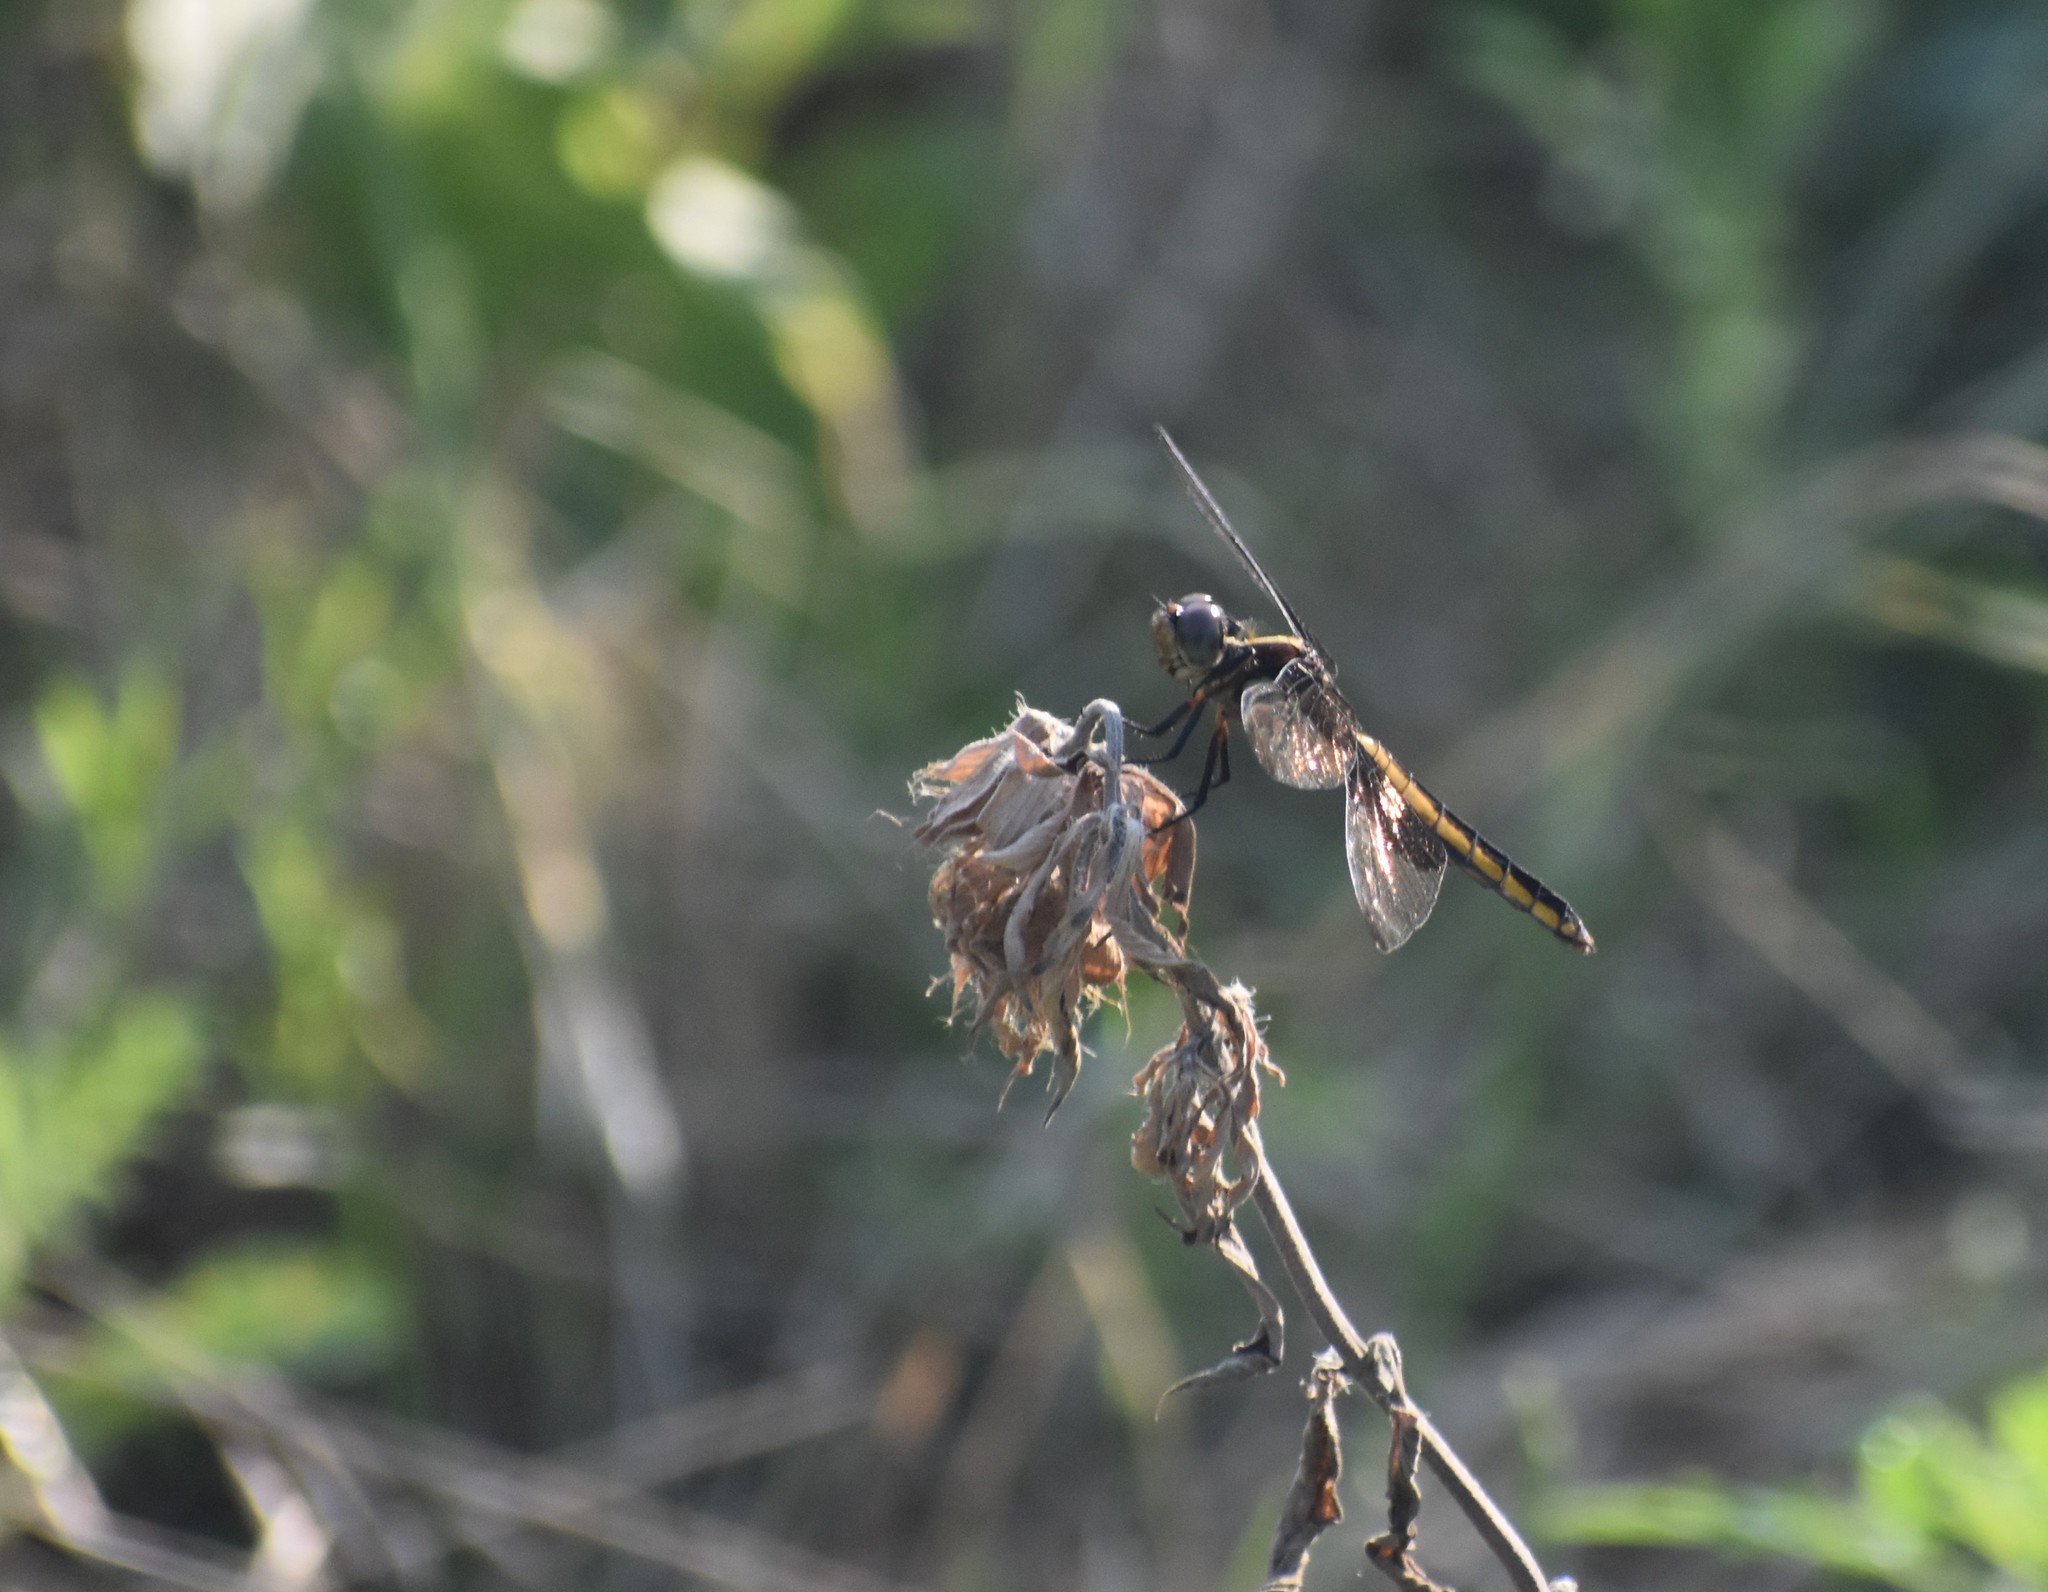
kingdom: Animalia
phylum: Arthropoda
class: Insecta
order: Odonata
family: Libellulidae
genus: Libellula
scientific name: Libellula luctuosa
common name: Widow skimmer
